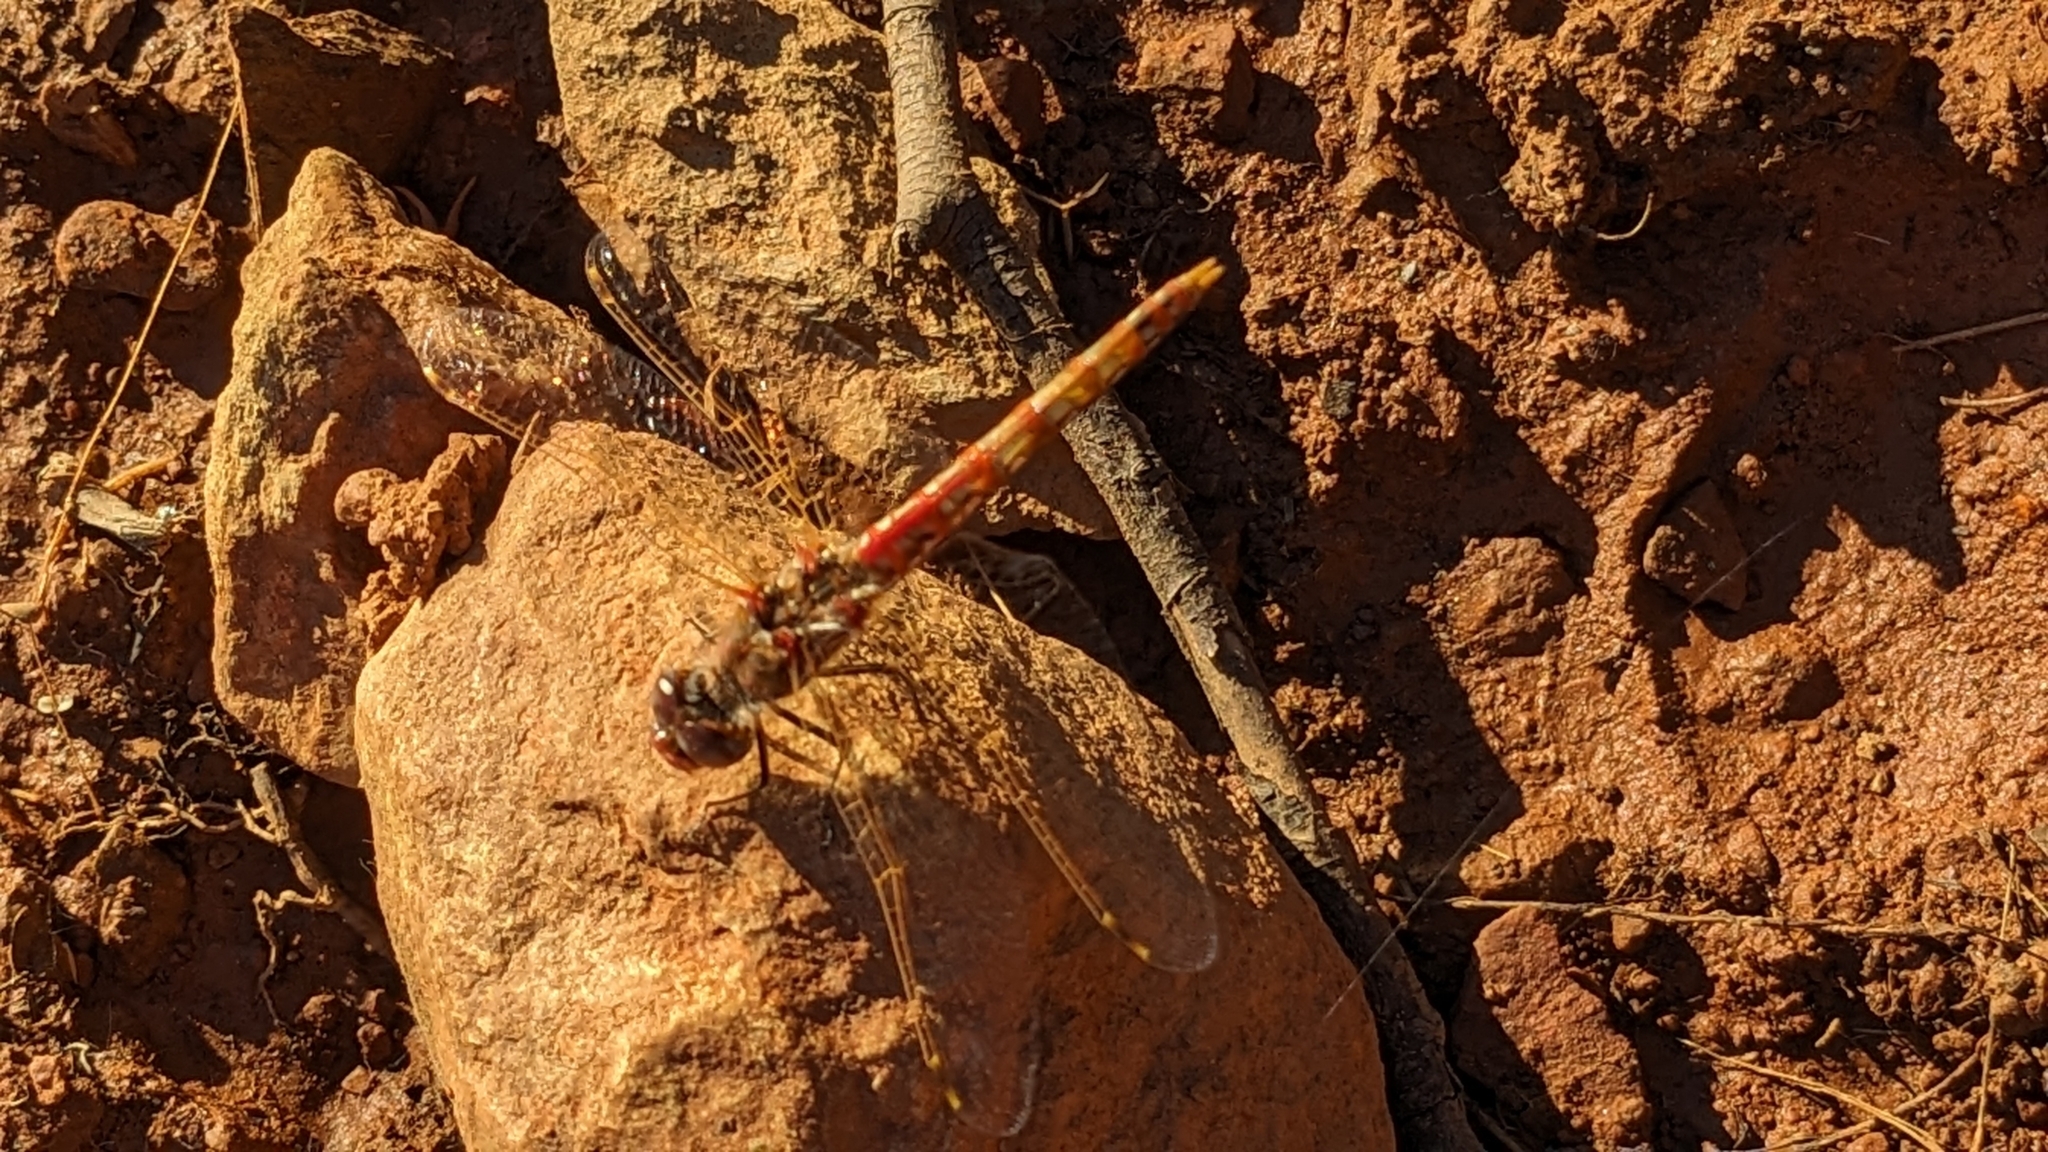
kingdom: Animalia
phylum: Arthropoda
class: Insecta
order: Odonata
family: Libellulidae
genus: Sympetrum
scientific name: Sympetrum corruptum
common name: Variegated meadowhawk
